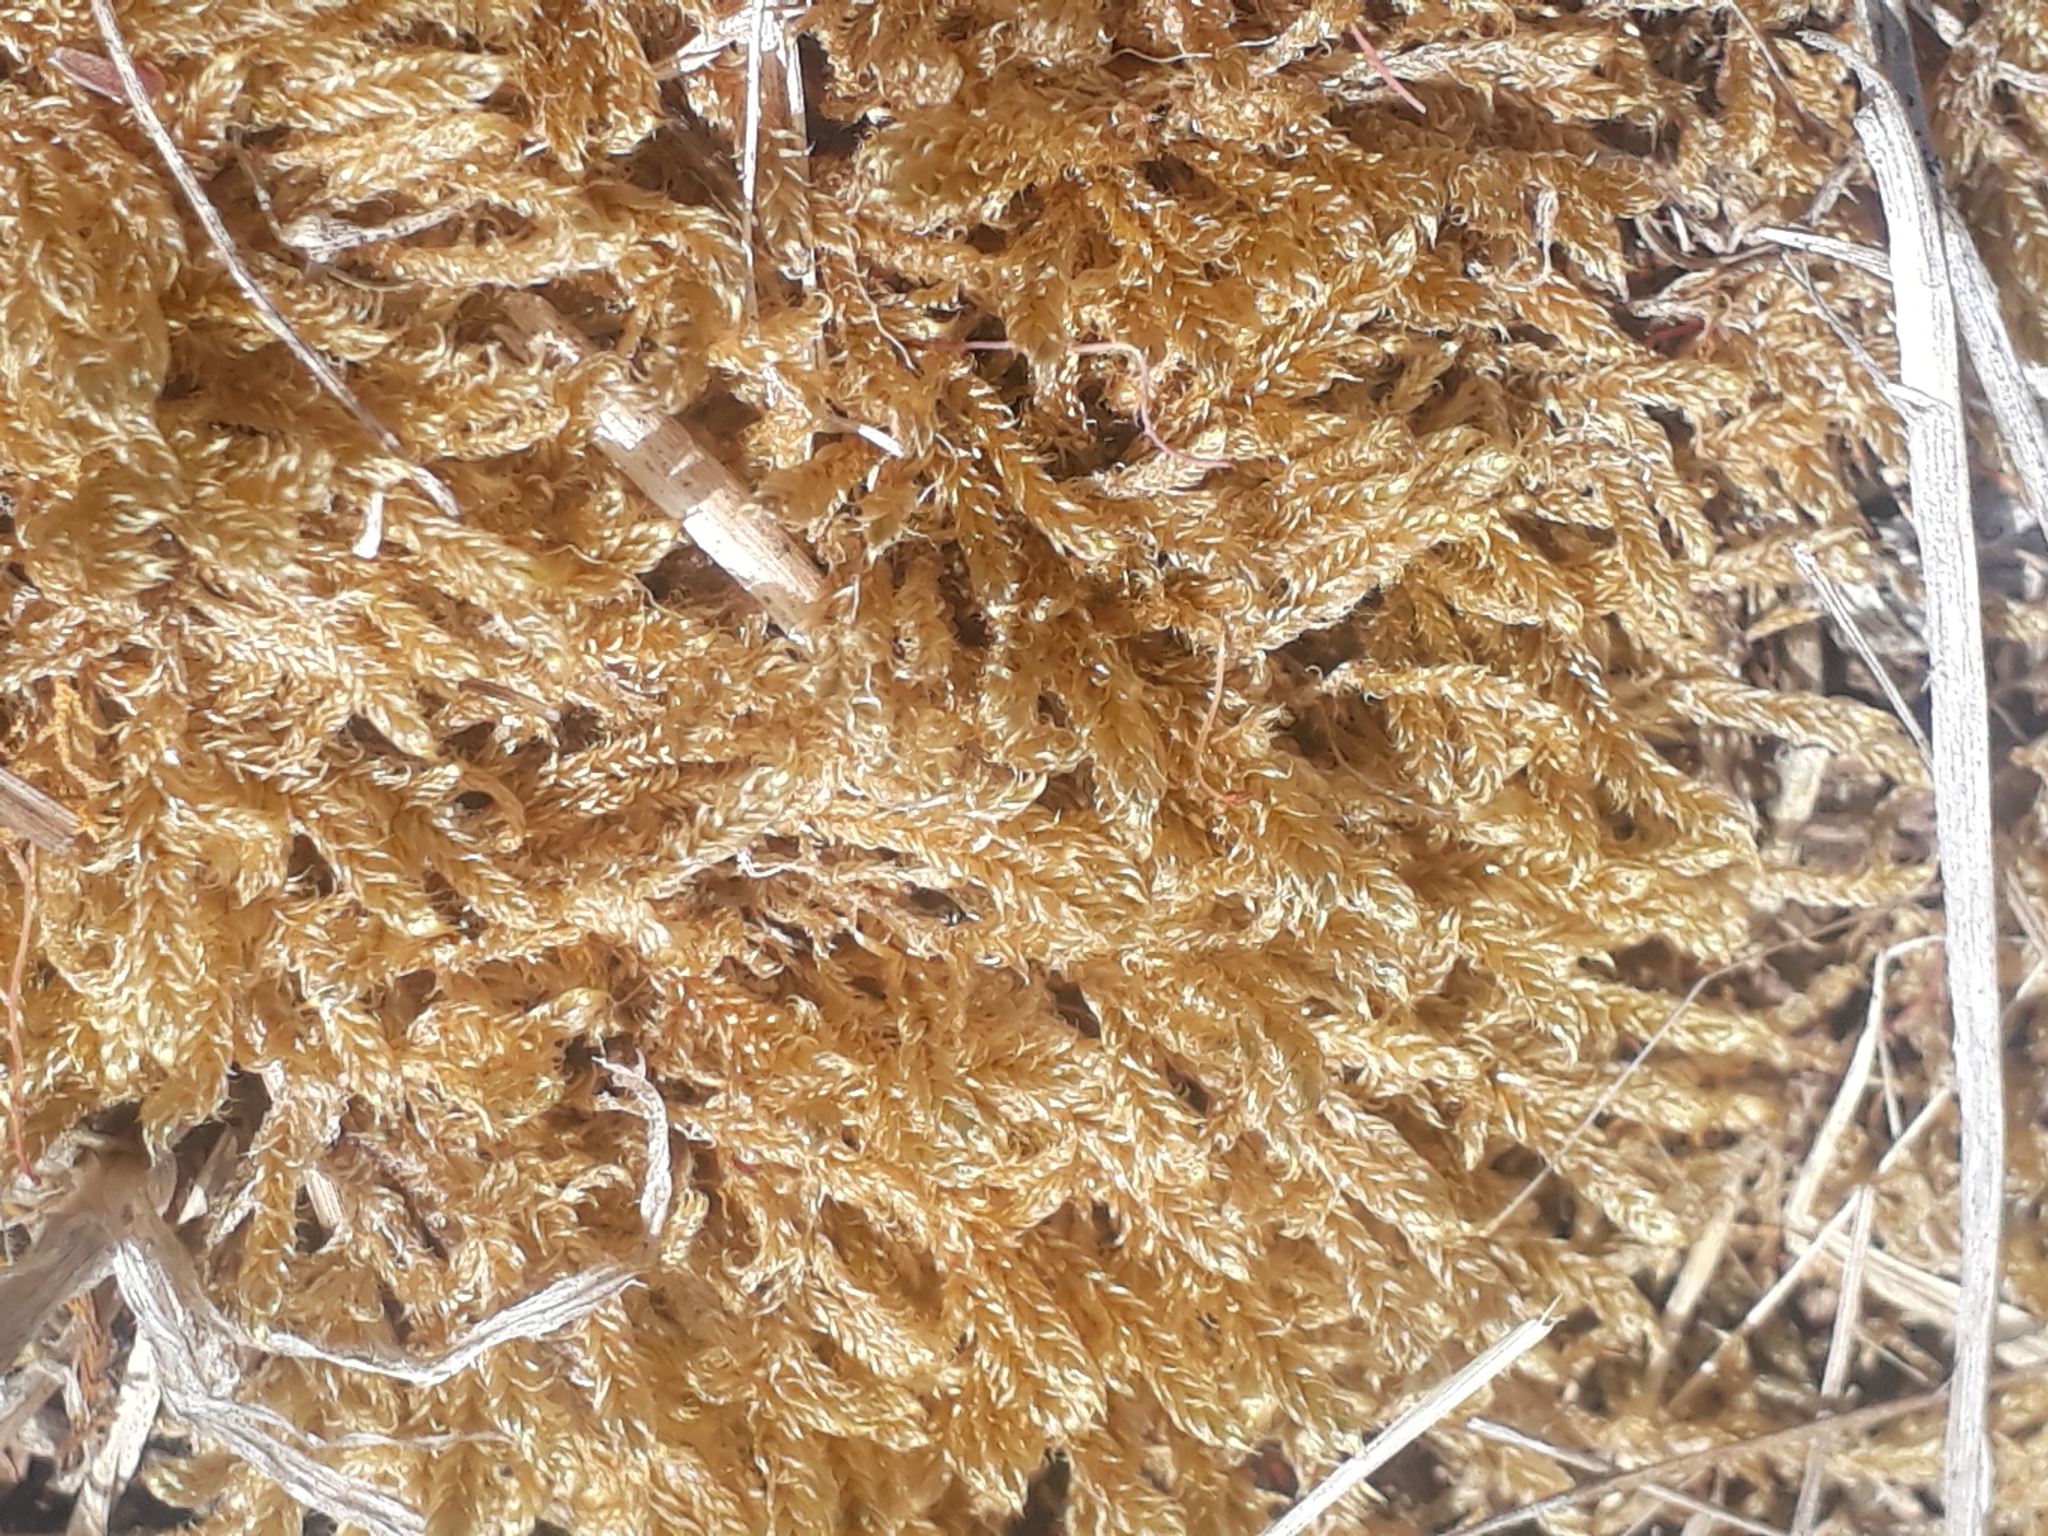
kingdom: Plantae
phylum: Bryophyta
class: Bryopsida
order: Hypnales
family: Hypnaceae
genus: Hypnum
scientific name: Hypnum cupressiforme
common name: Cypress-leaved plait-moss
